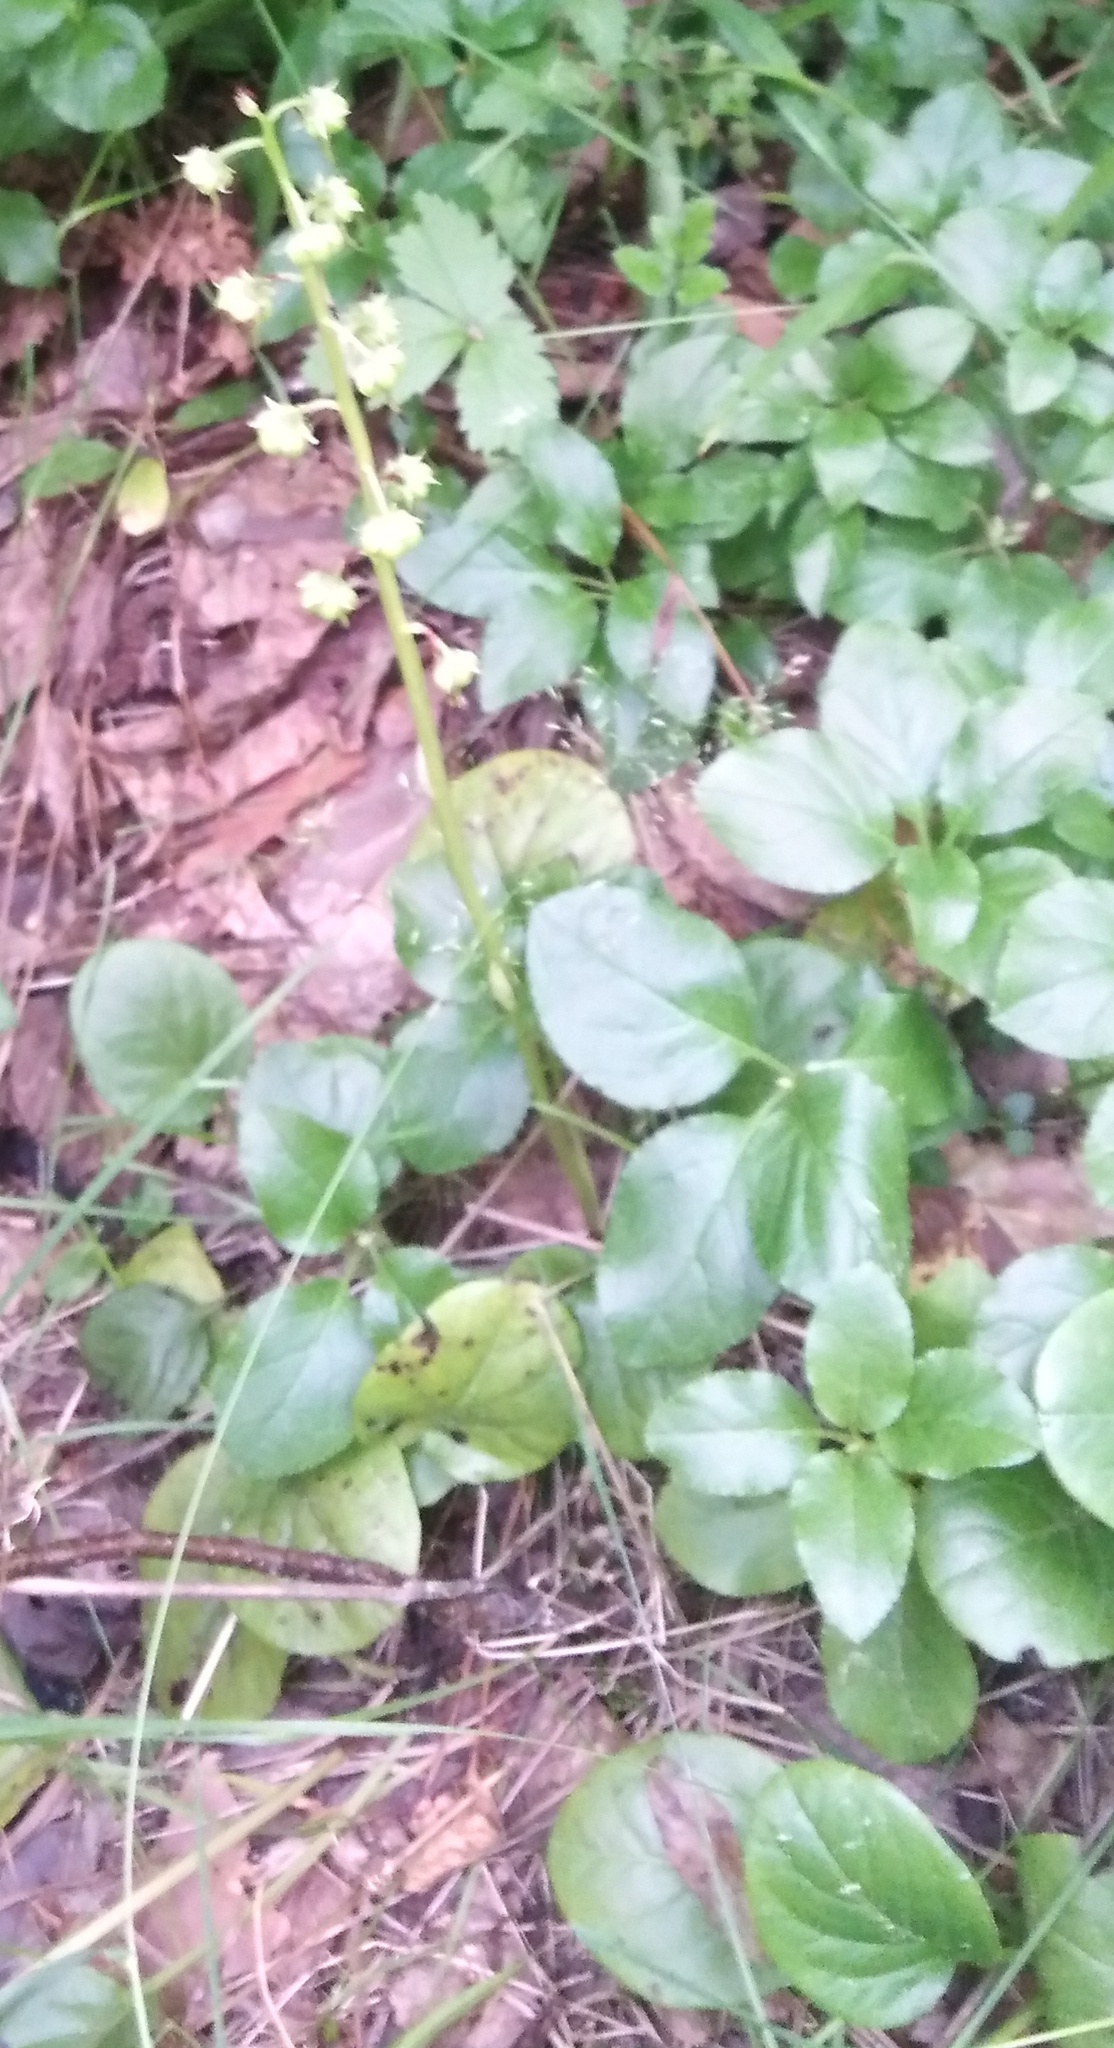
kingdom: Plantae
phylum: Tracheophyta
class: Magnoliopsida
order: Ericales
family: Ericaceae
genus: Pyrola
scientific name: Pyrola rotundifolia
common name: Round-leaved wintergreen
